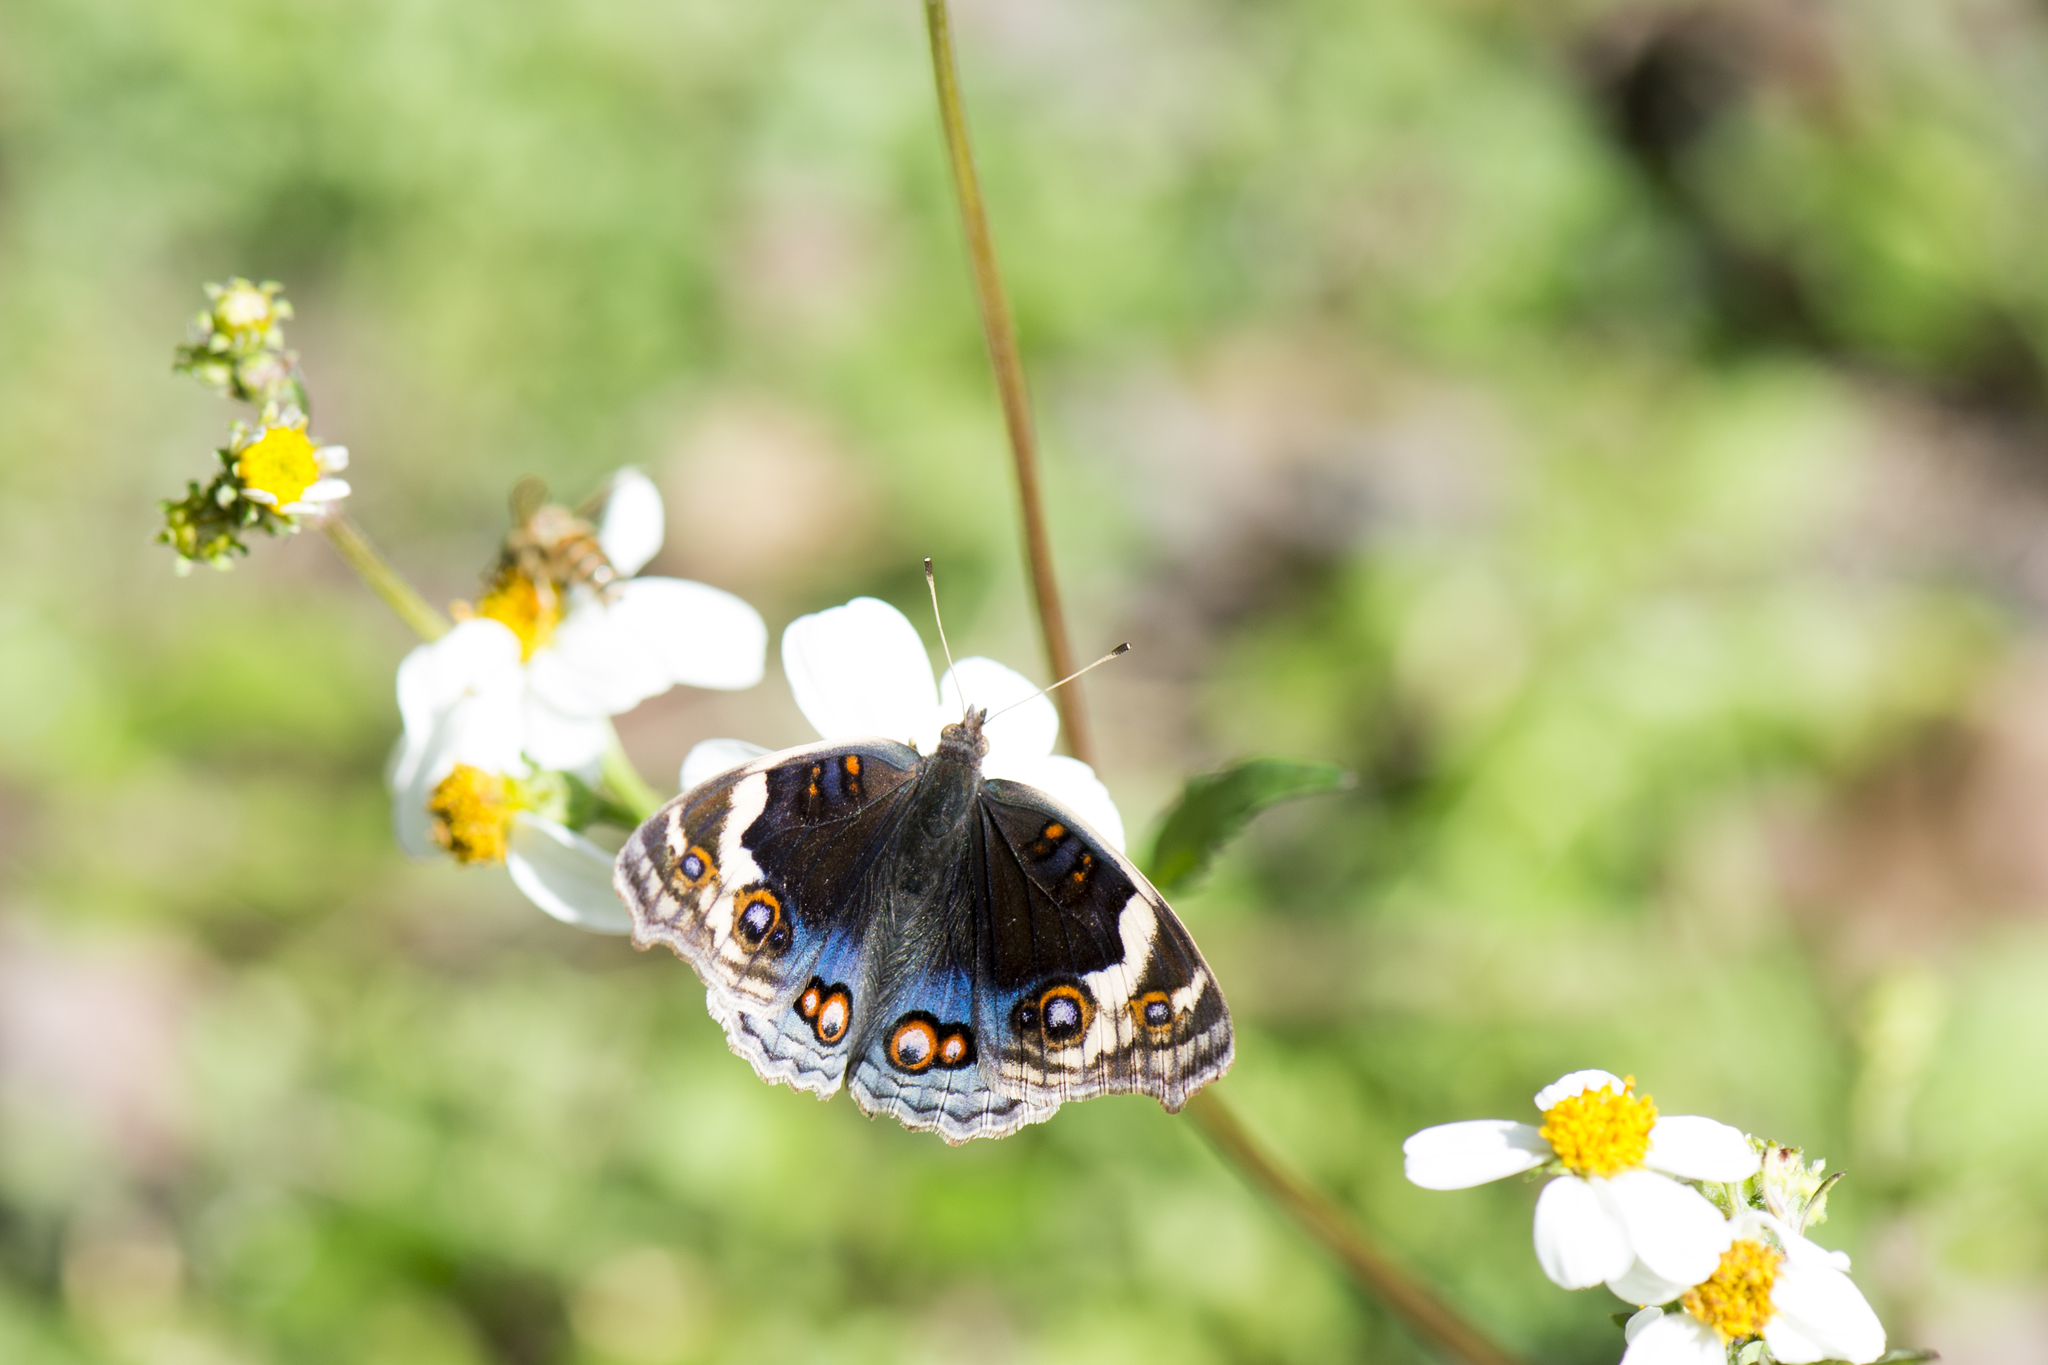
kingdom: Animalia
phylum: Arthropoda
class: Insecta
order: Lepidoptera
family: Nymphalidae
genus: Junonia
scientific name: Junonia orithya
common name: Blue pansy
